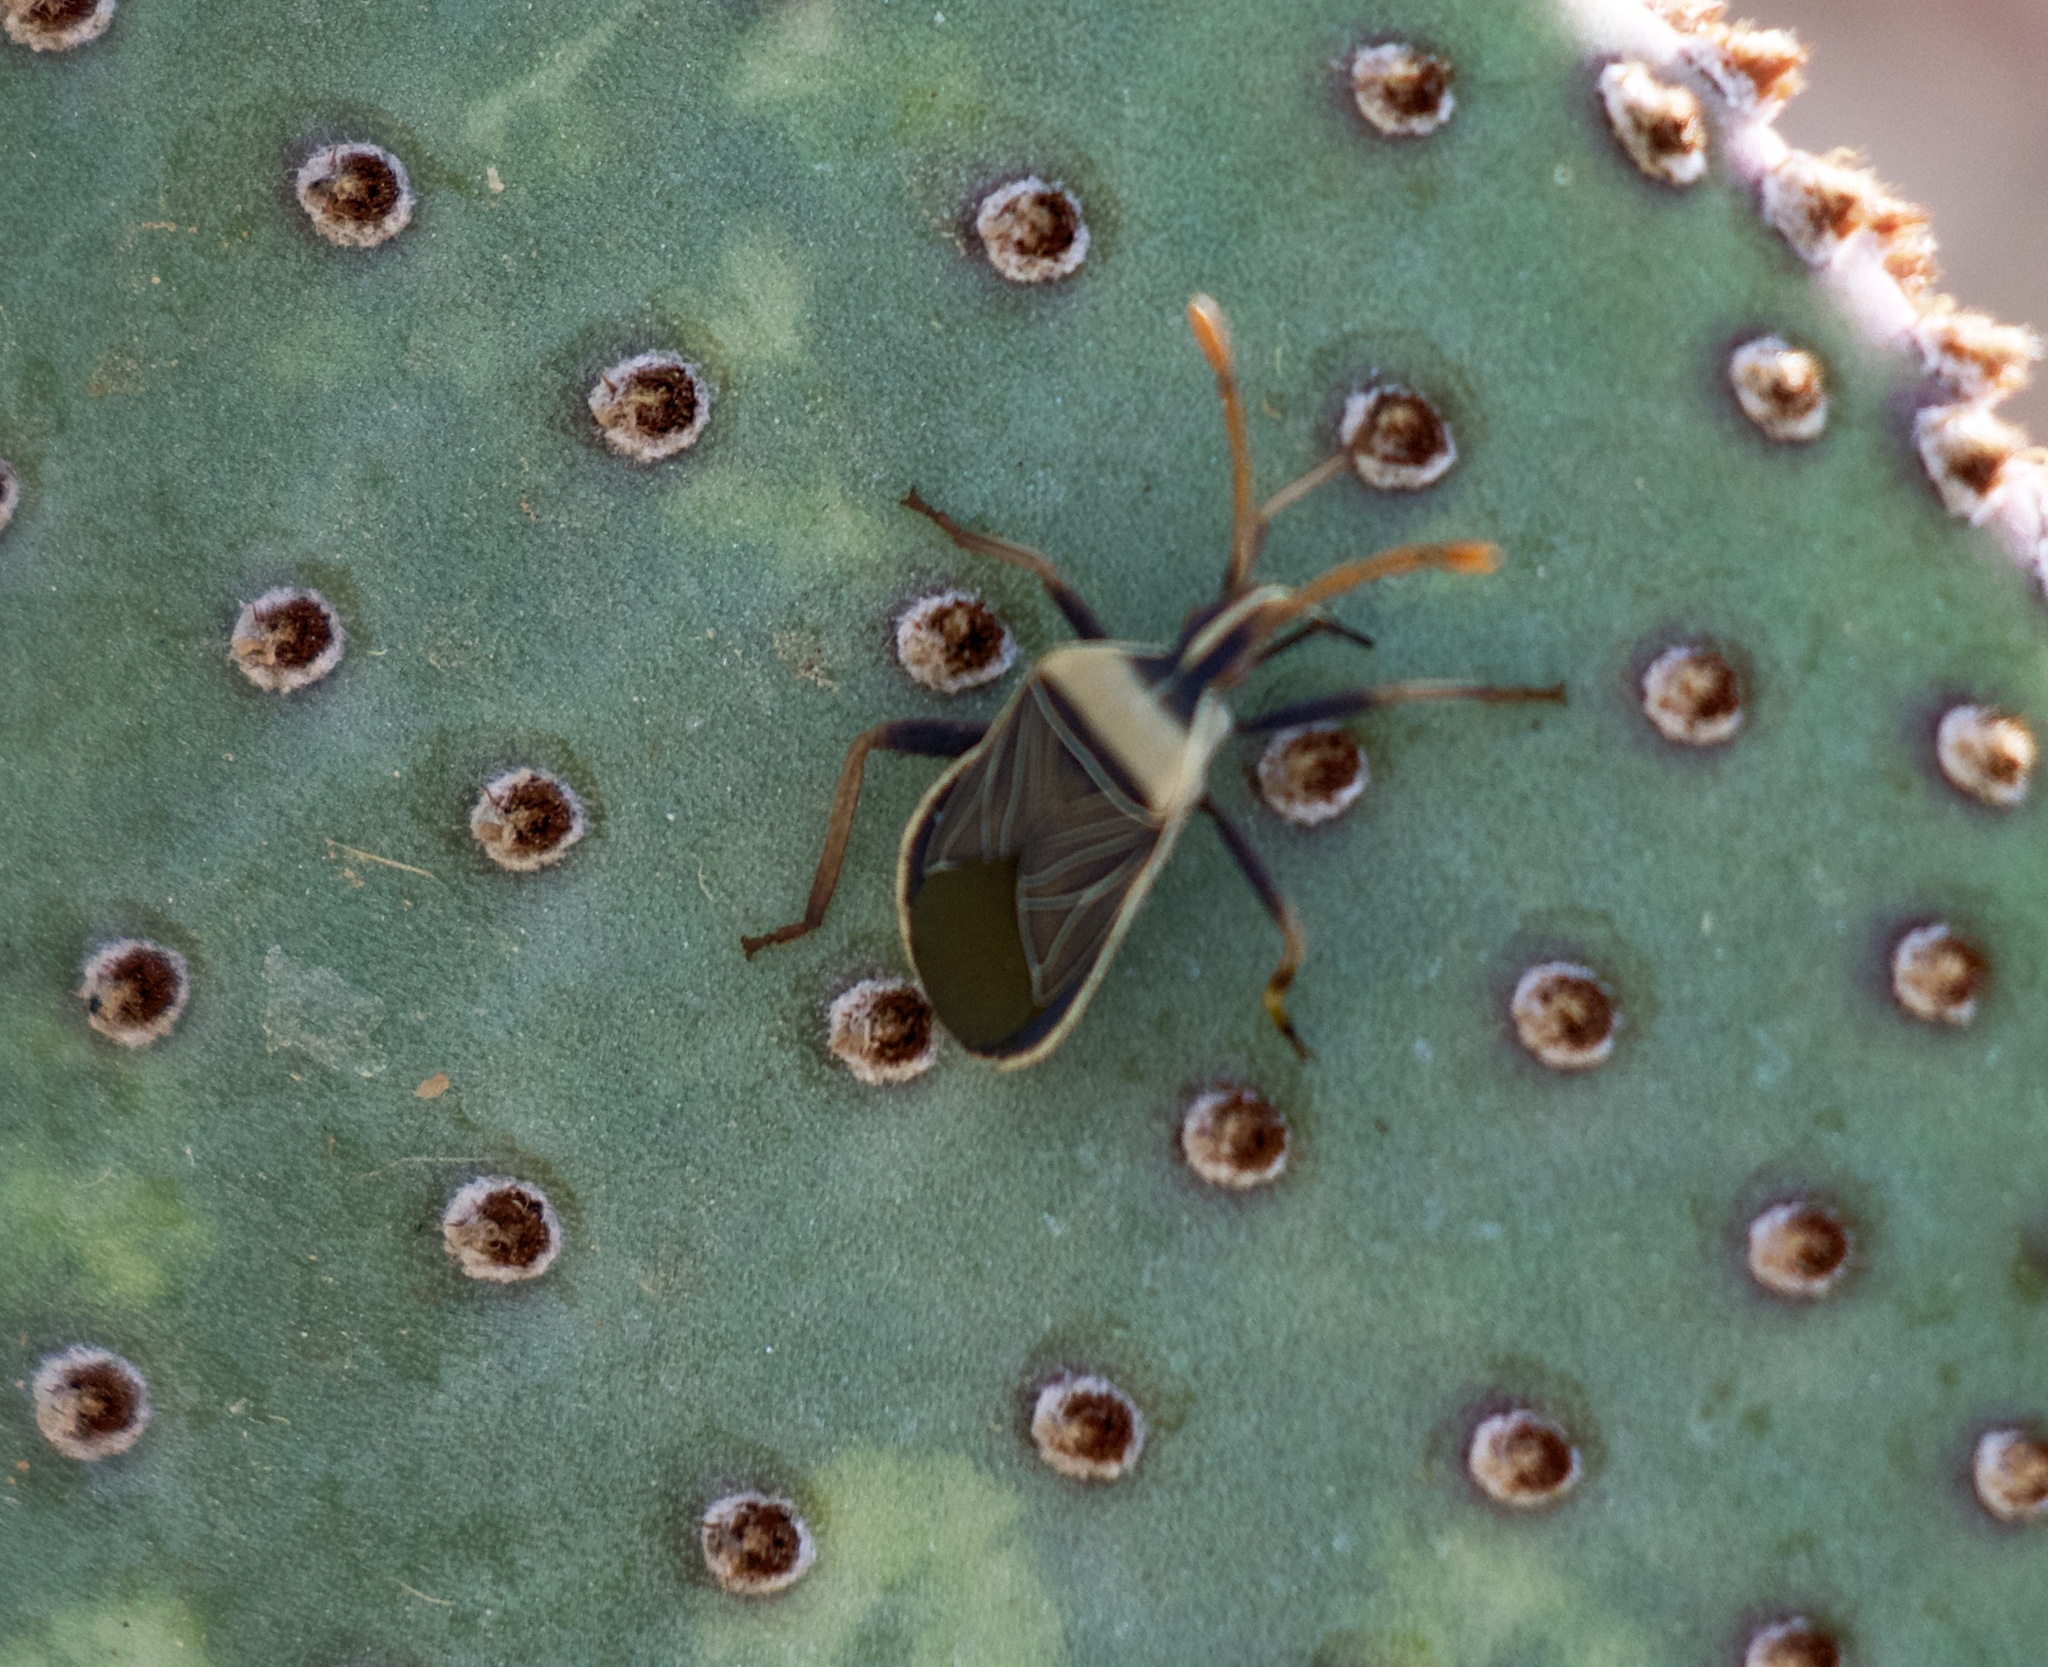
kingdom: Animalia
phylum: Arthropoda
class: Insecta
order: Hemiptera
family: Coreidae
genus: Chelinidea
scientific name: Chelinidea vittiger
